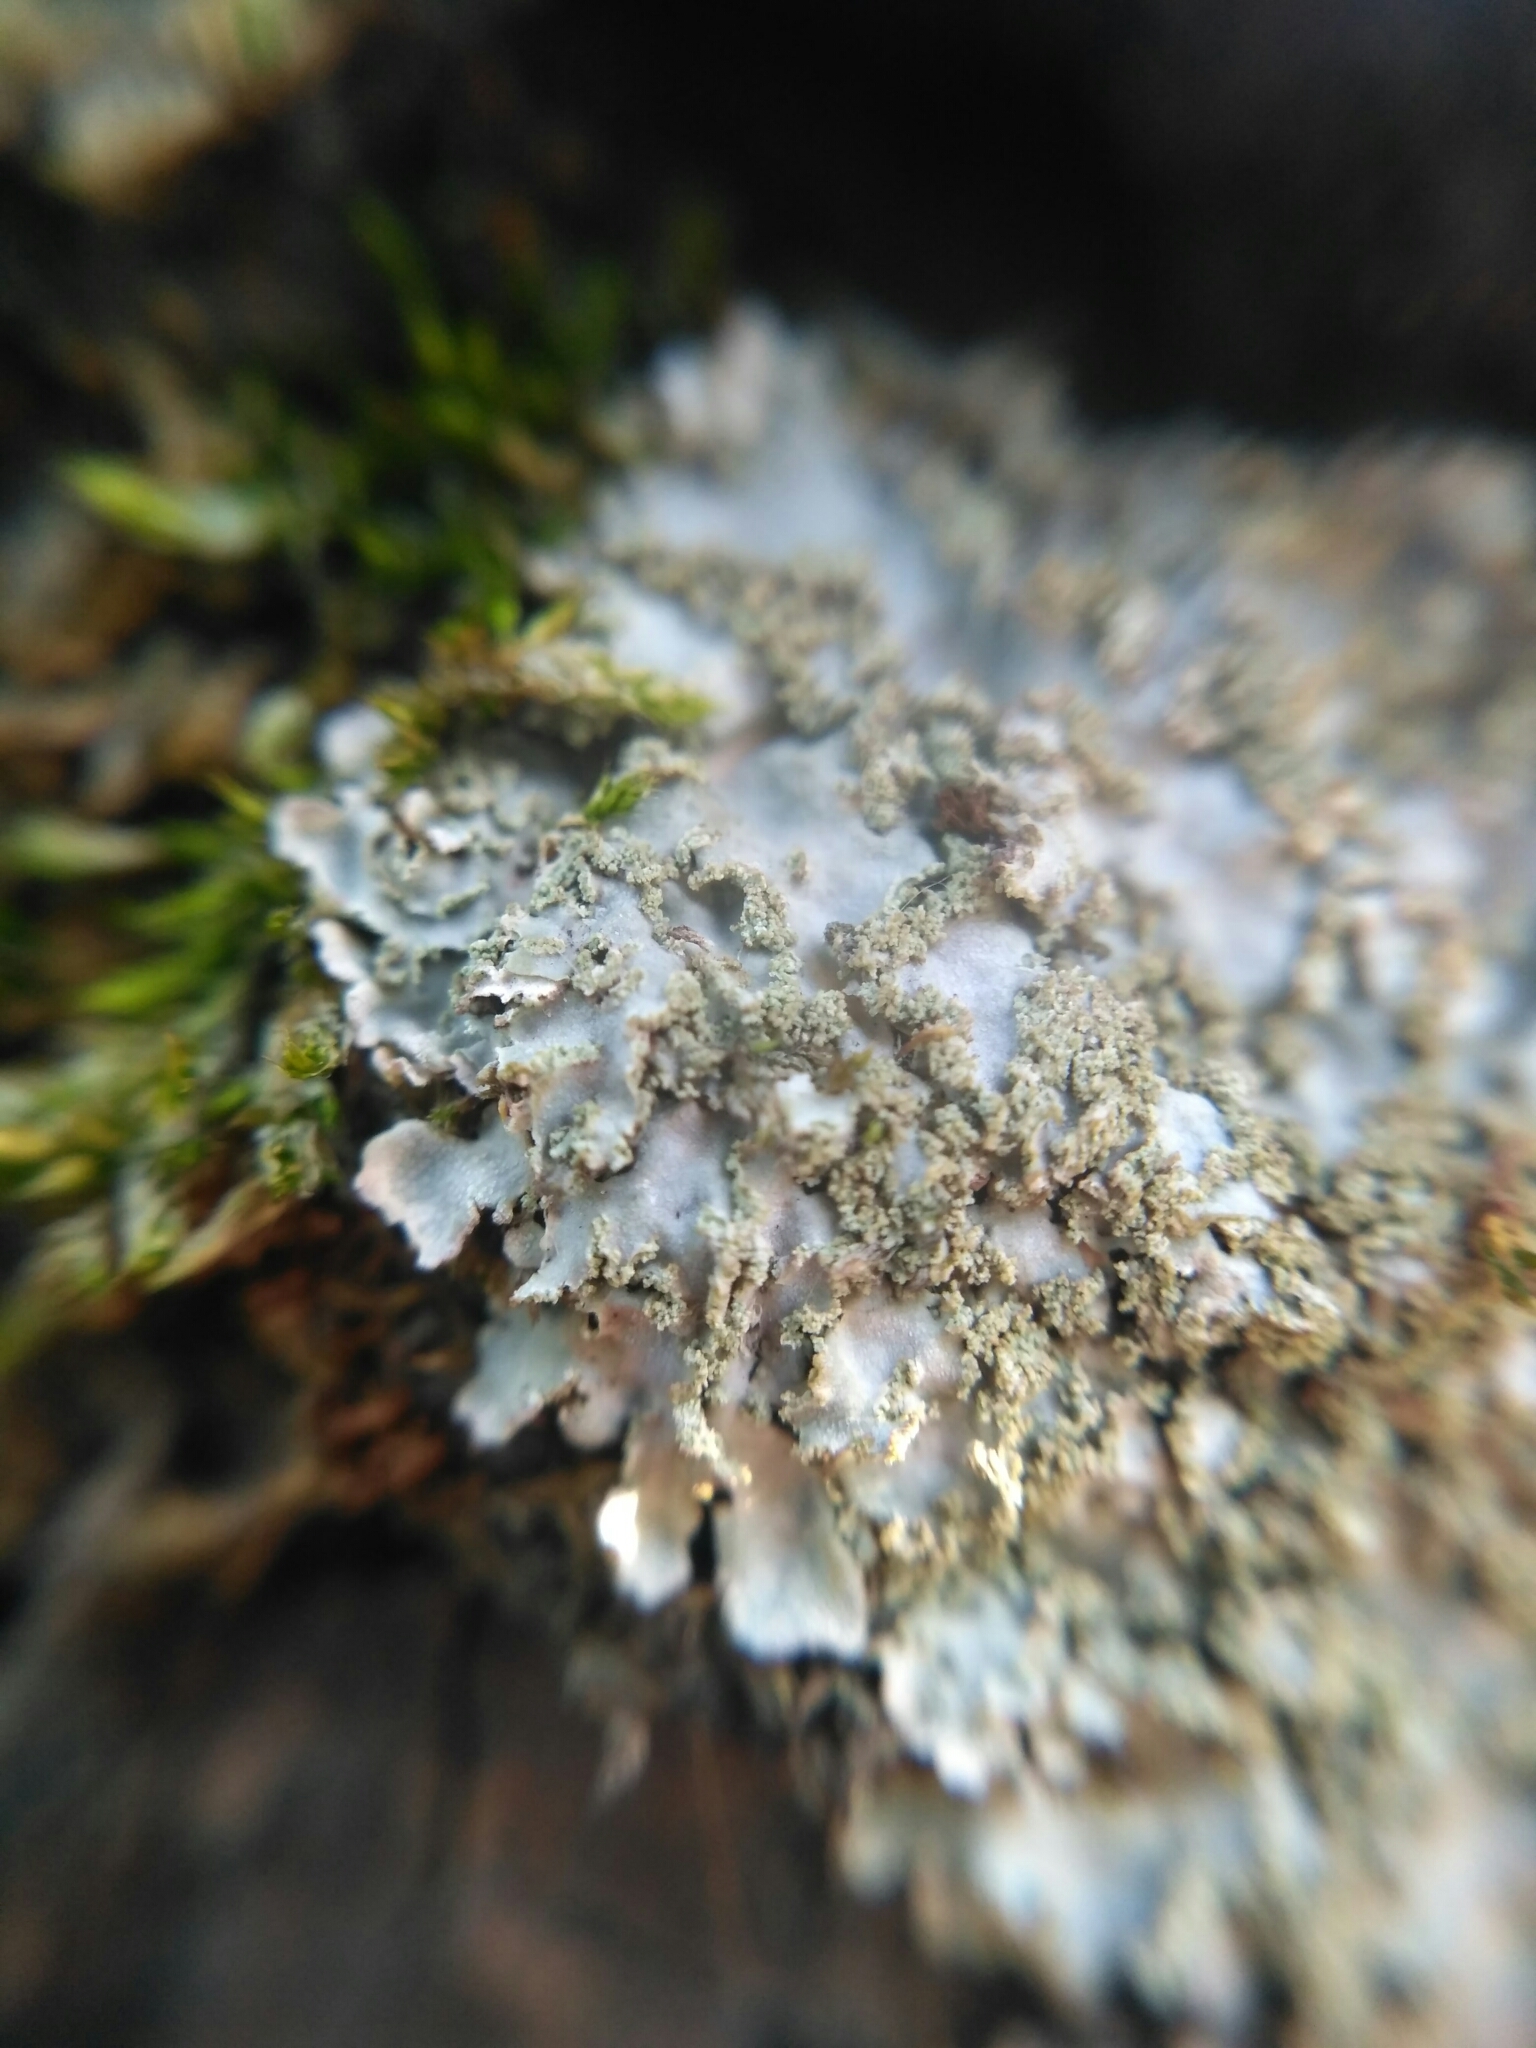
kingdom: Fungi
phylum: Ascomycota
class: Lecanoromycetes
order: Caliciales
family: Physciaceae
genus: Poeltonia
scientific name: Poeltonia grisea
